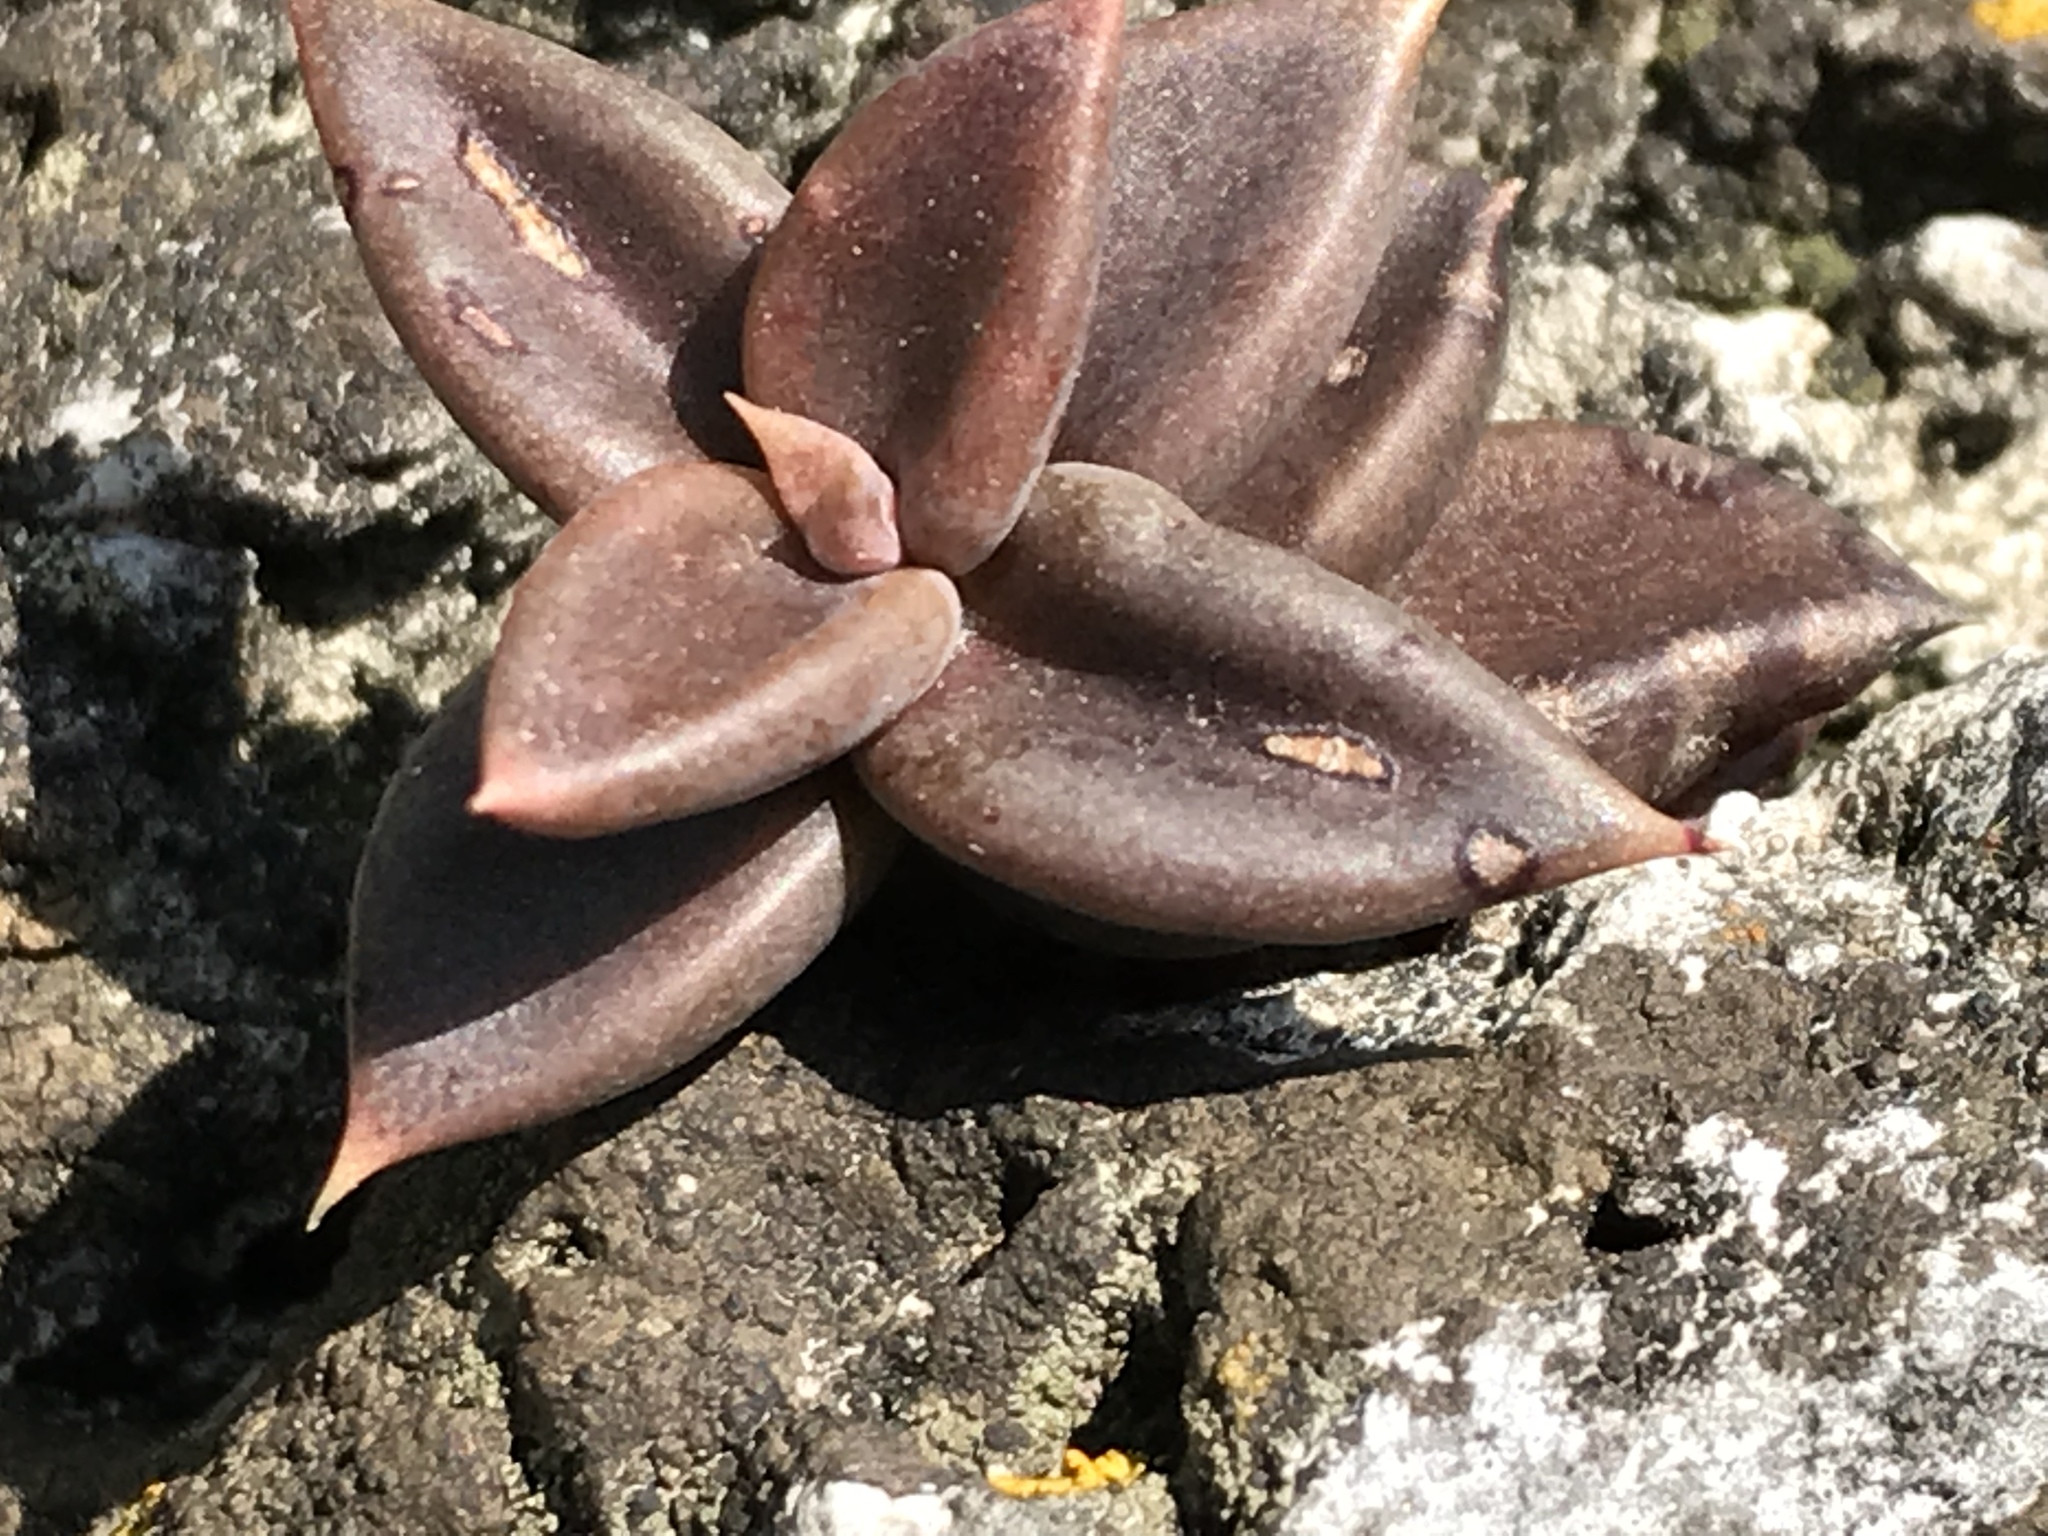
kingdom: Plantae
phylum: Tracheophyta
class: Magnoliopsida
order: Saxifragales
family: Crassulaceae
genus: Lenophyllum
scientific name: Lenophyllum acutifolium
